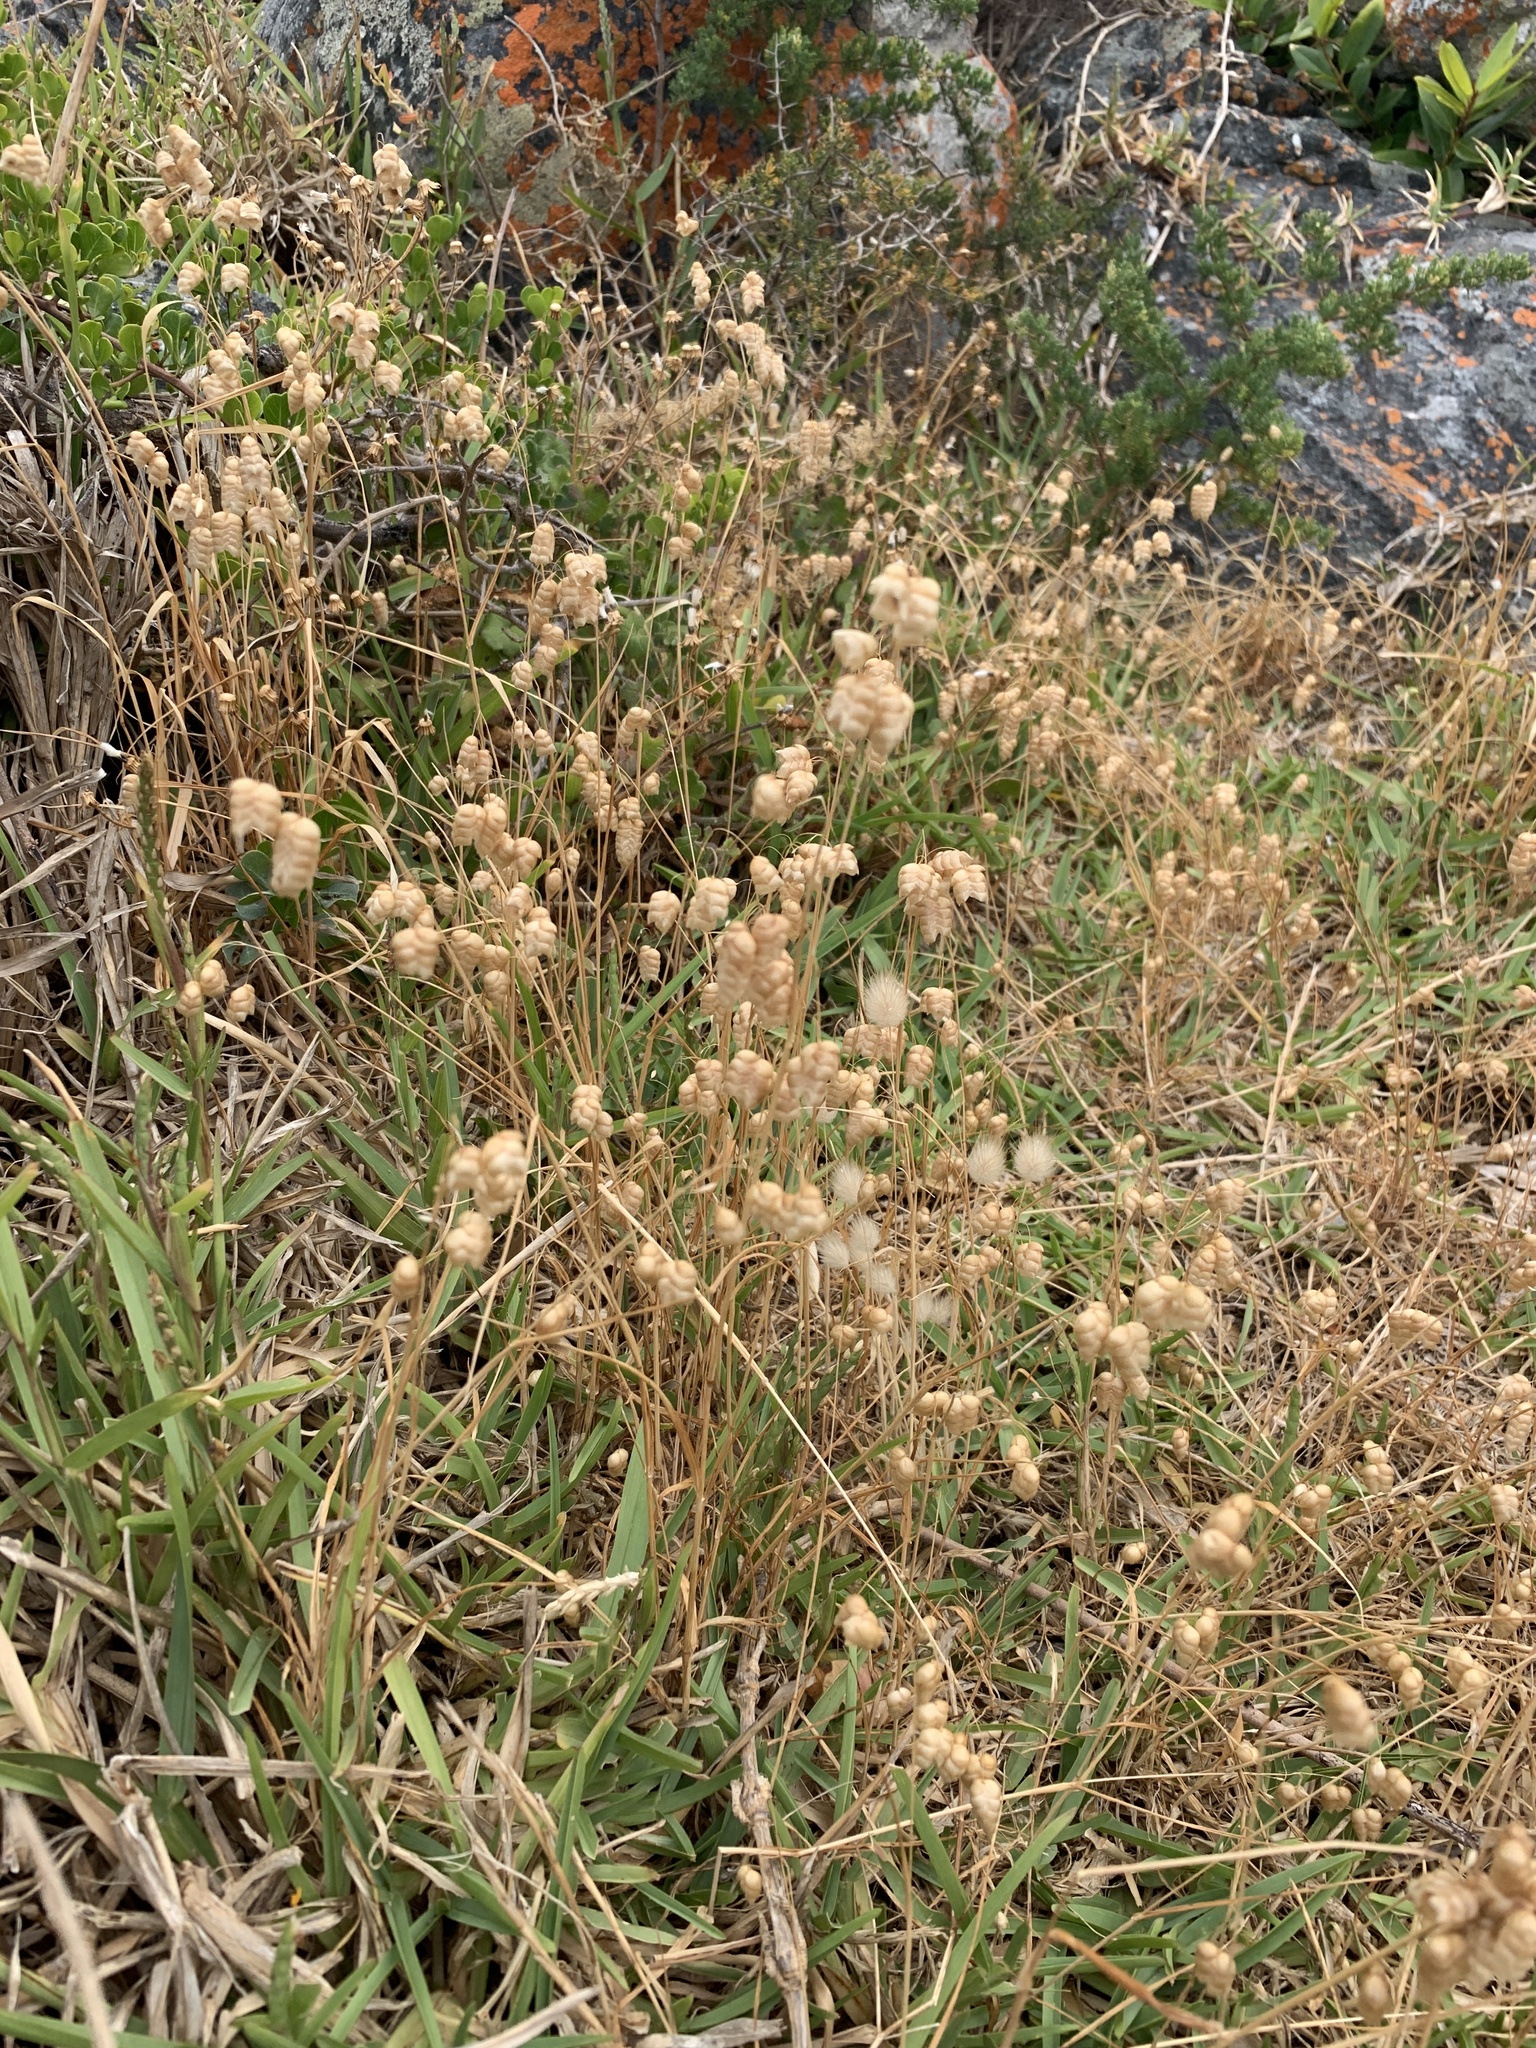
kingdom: Plantae
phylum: Tracheophyta
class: Liliopsida
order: Poales
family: Poaceae
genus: Briza
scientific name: Briza maxima
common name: Big quakinggrass
